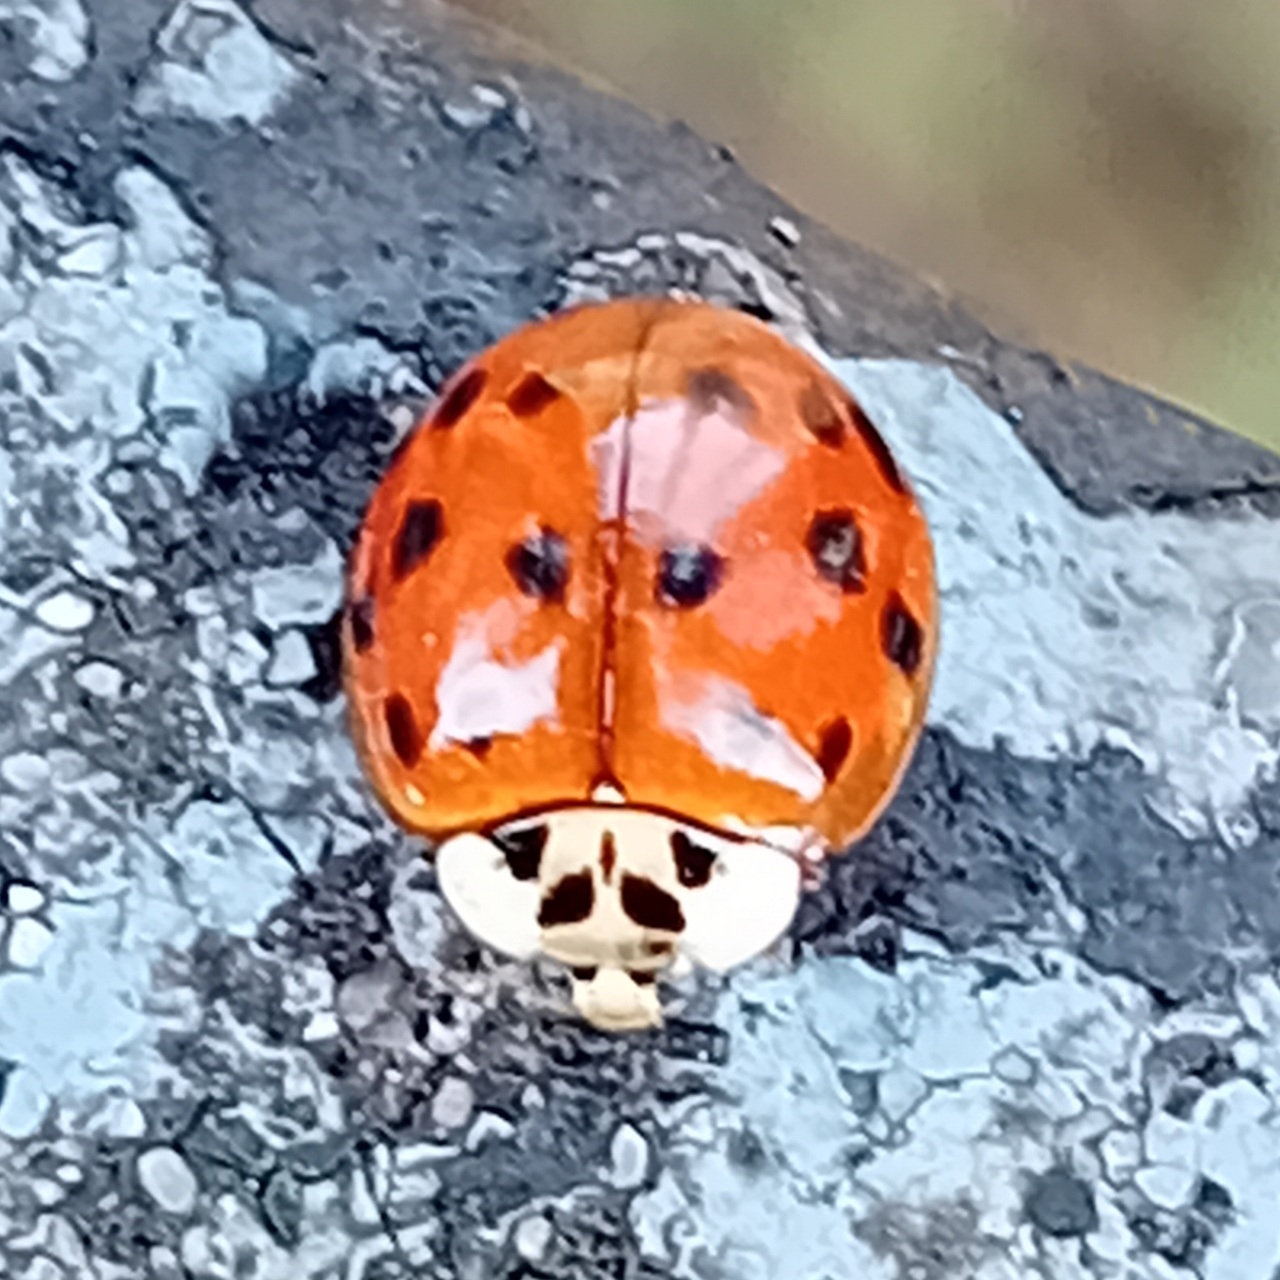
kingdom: Animalia
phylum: Arthropoda
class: Insecta
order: Coleoptera
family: Coccinellidae
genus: Harmonia
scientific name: Harmonia axyridis
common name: Harlequin ladybird
